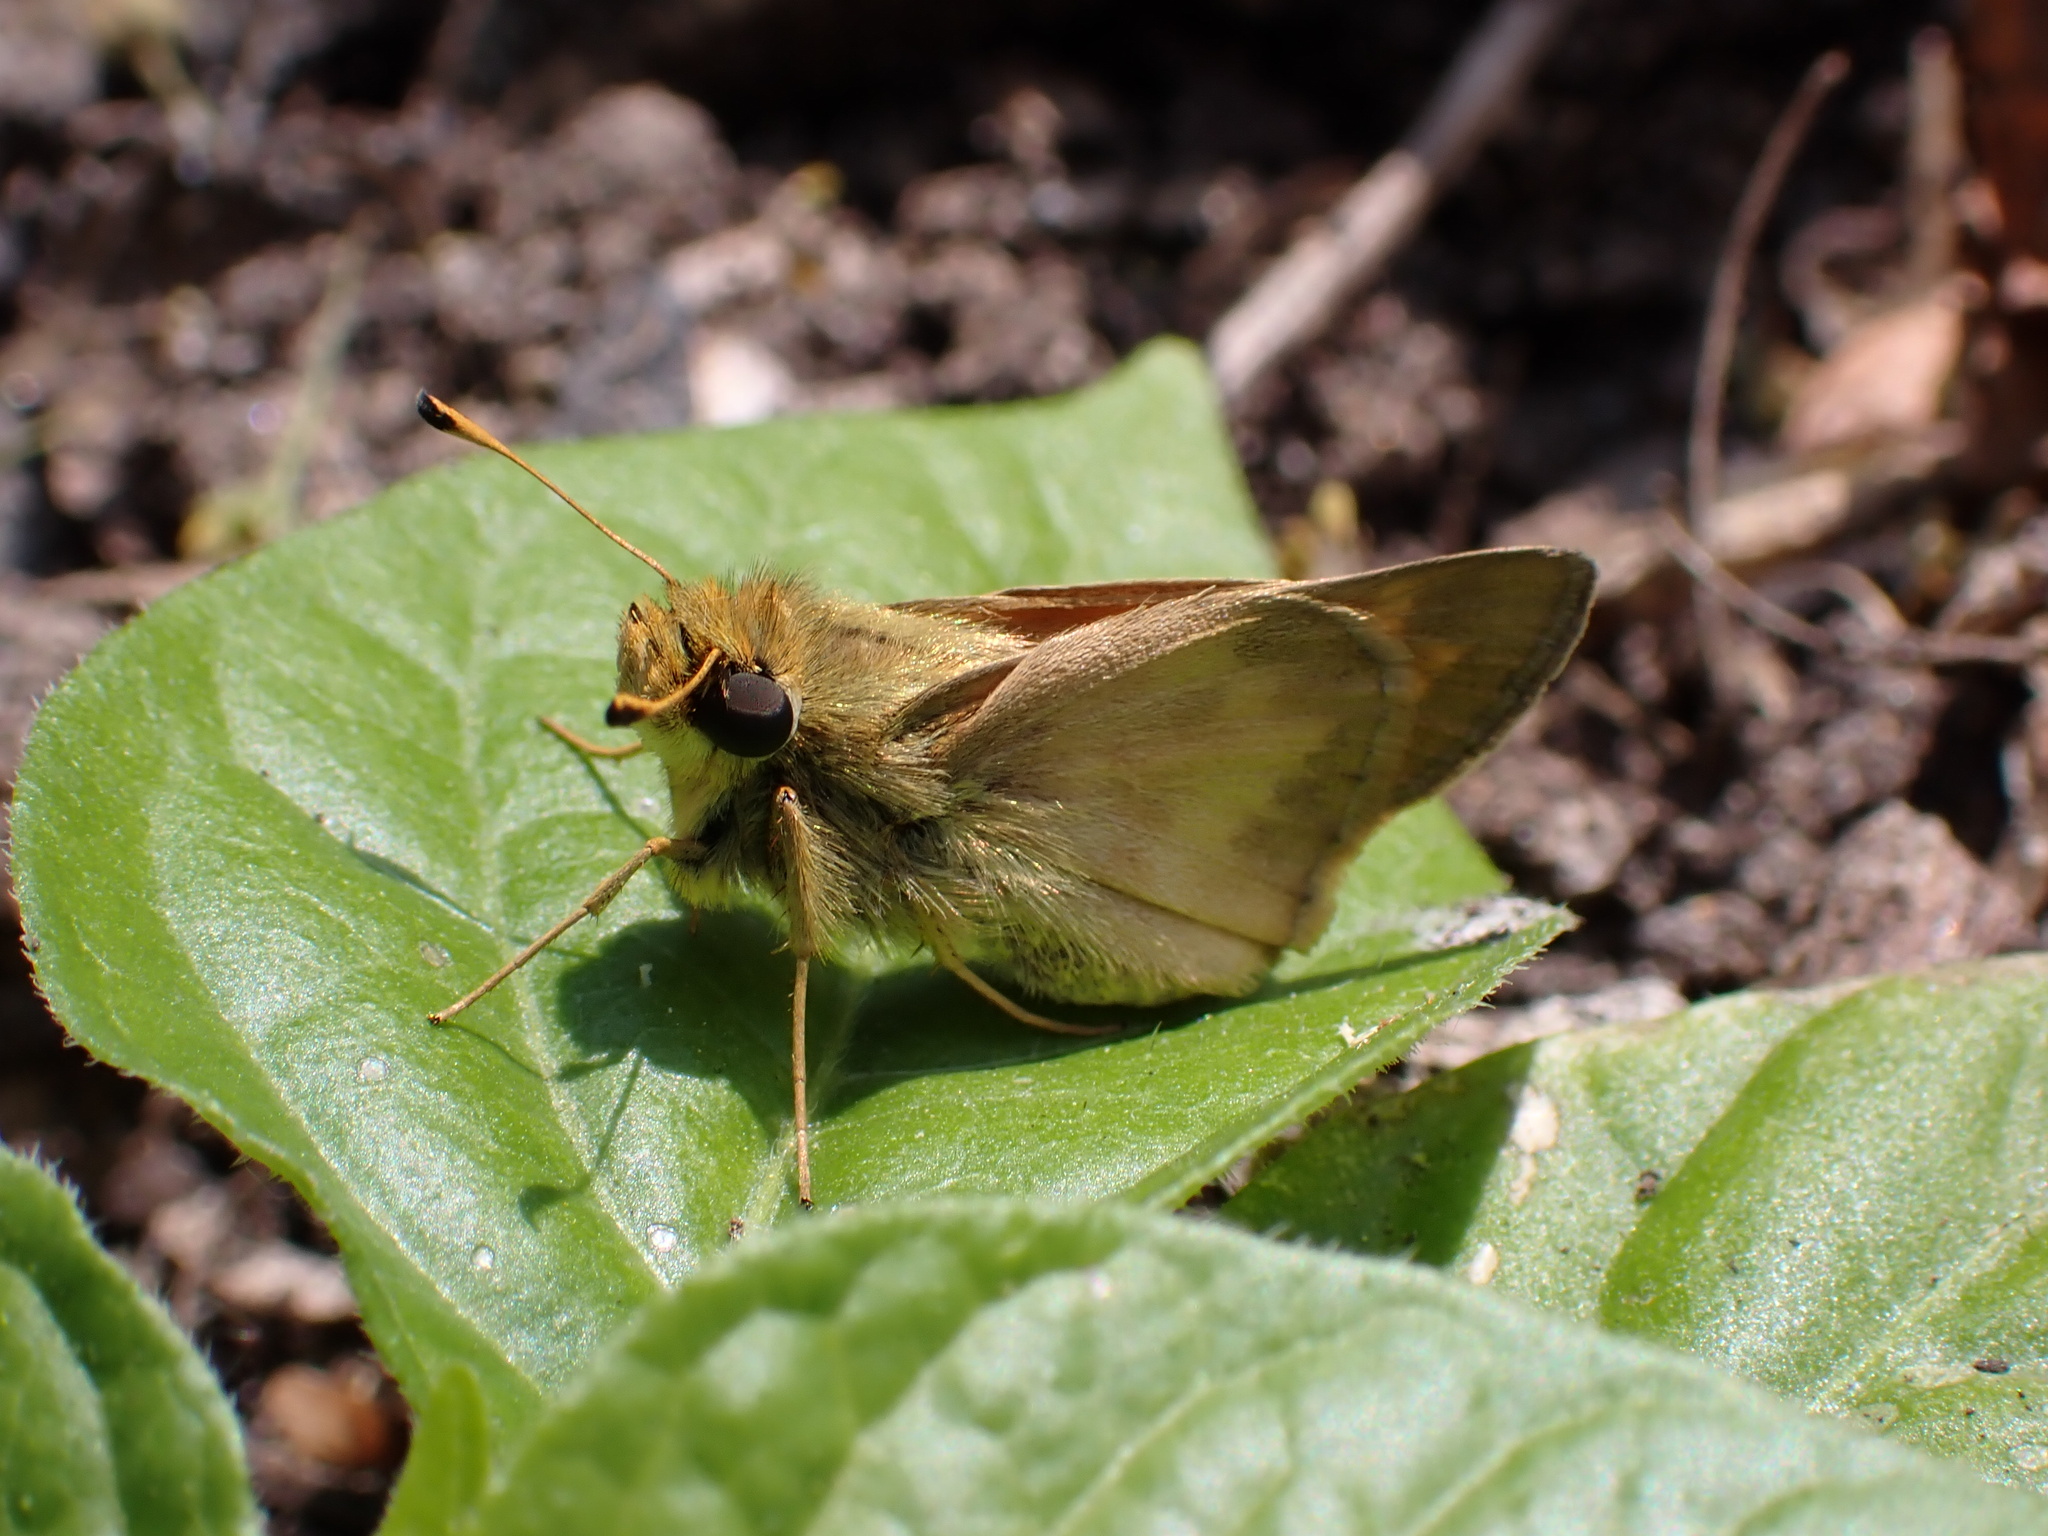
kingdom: Animalia
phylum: Arthropoda
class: Insecta
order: Lepidoptera
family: Hesperiidae
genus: Atalopedes
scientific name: Atalopedes
